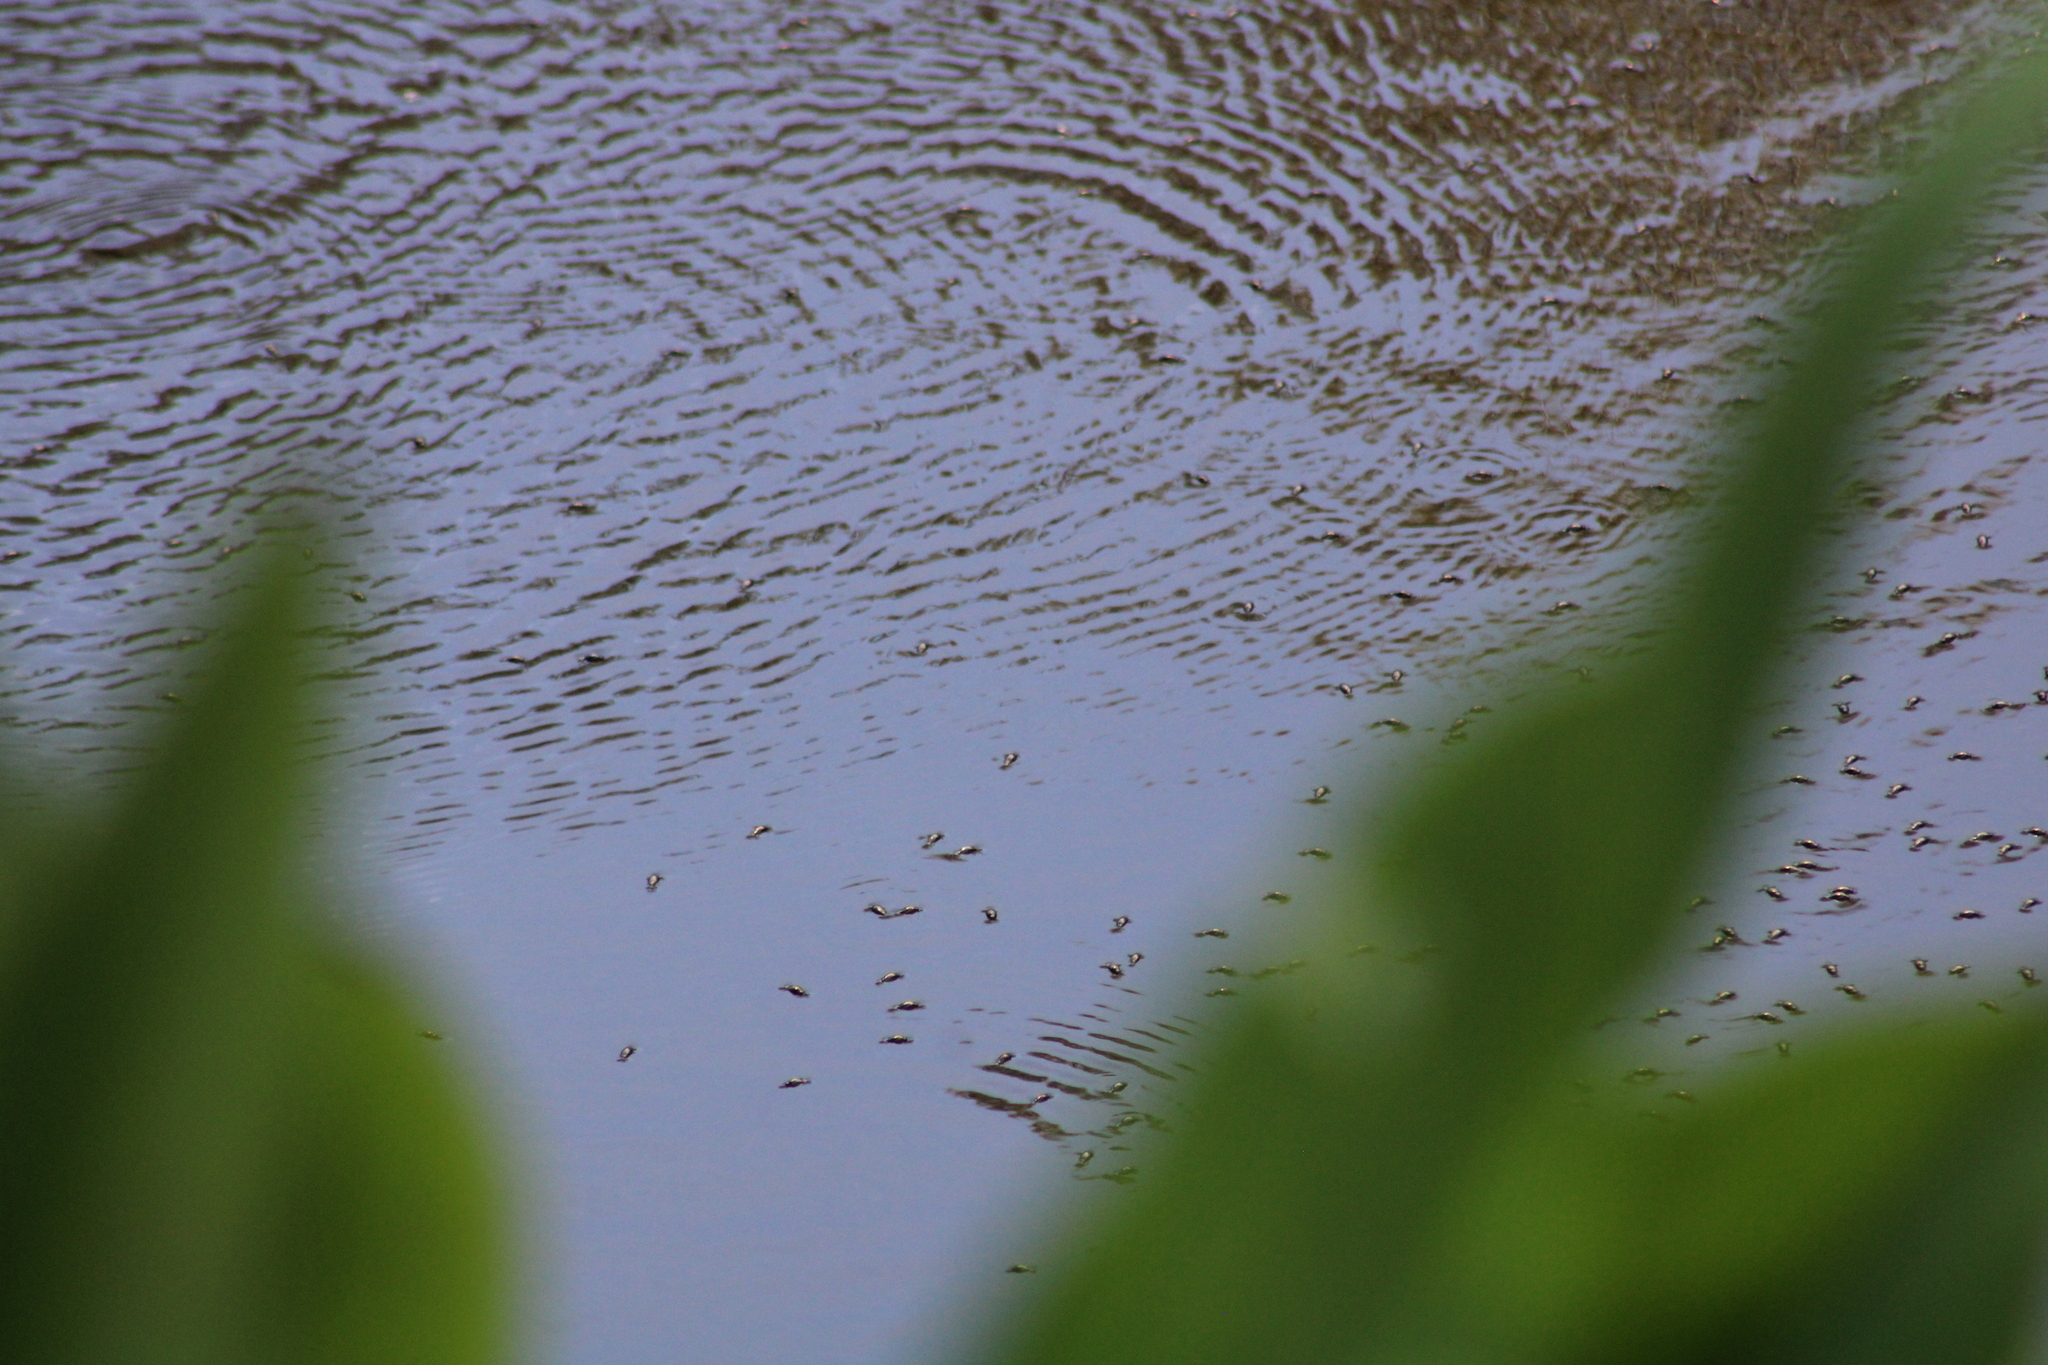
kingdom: Animalia
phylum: Arthropoda
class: Insecta
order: Coleoptera
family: Gyrinidae
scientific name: Gyrinidae
